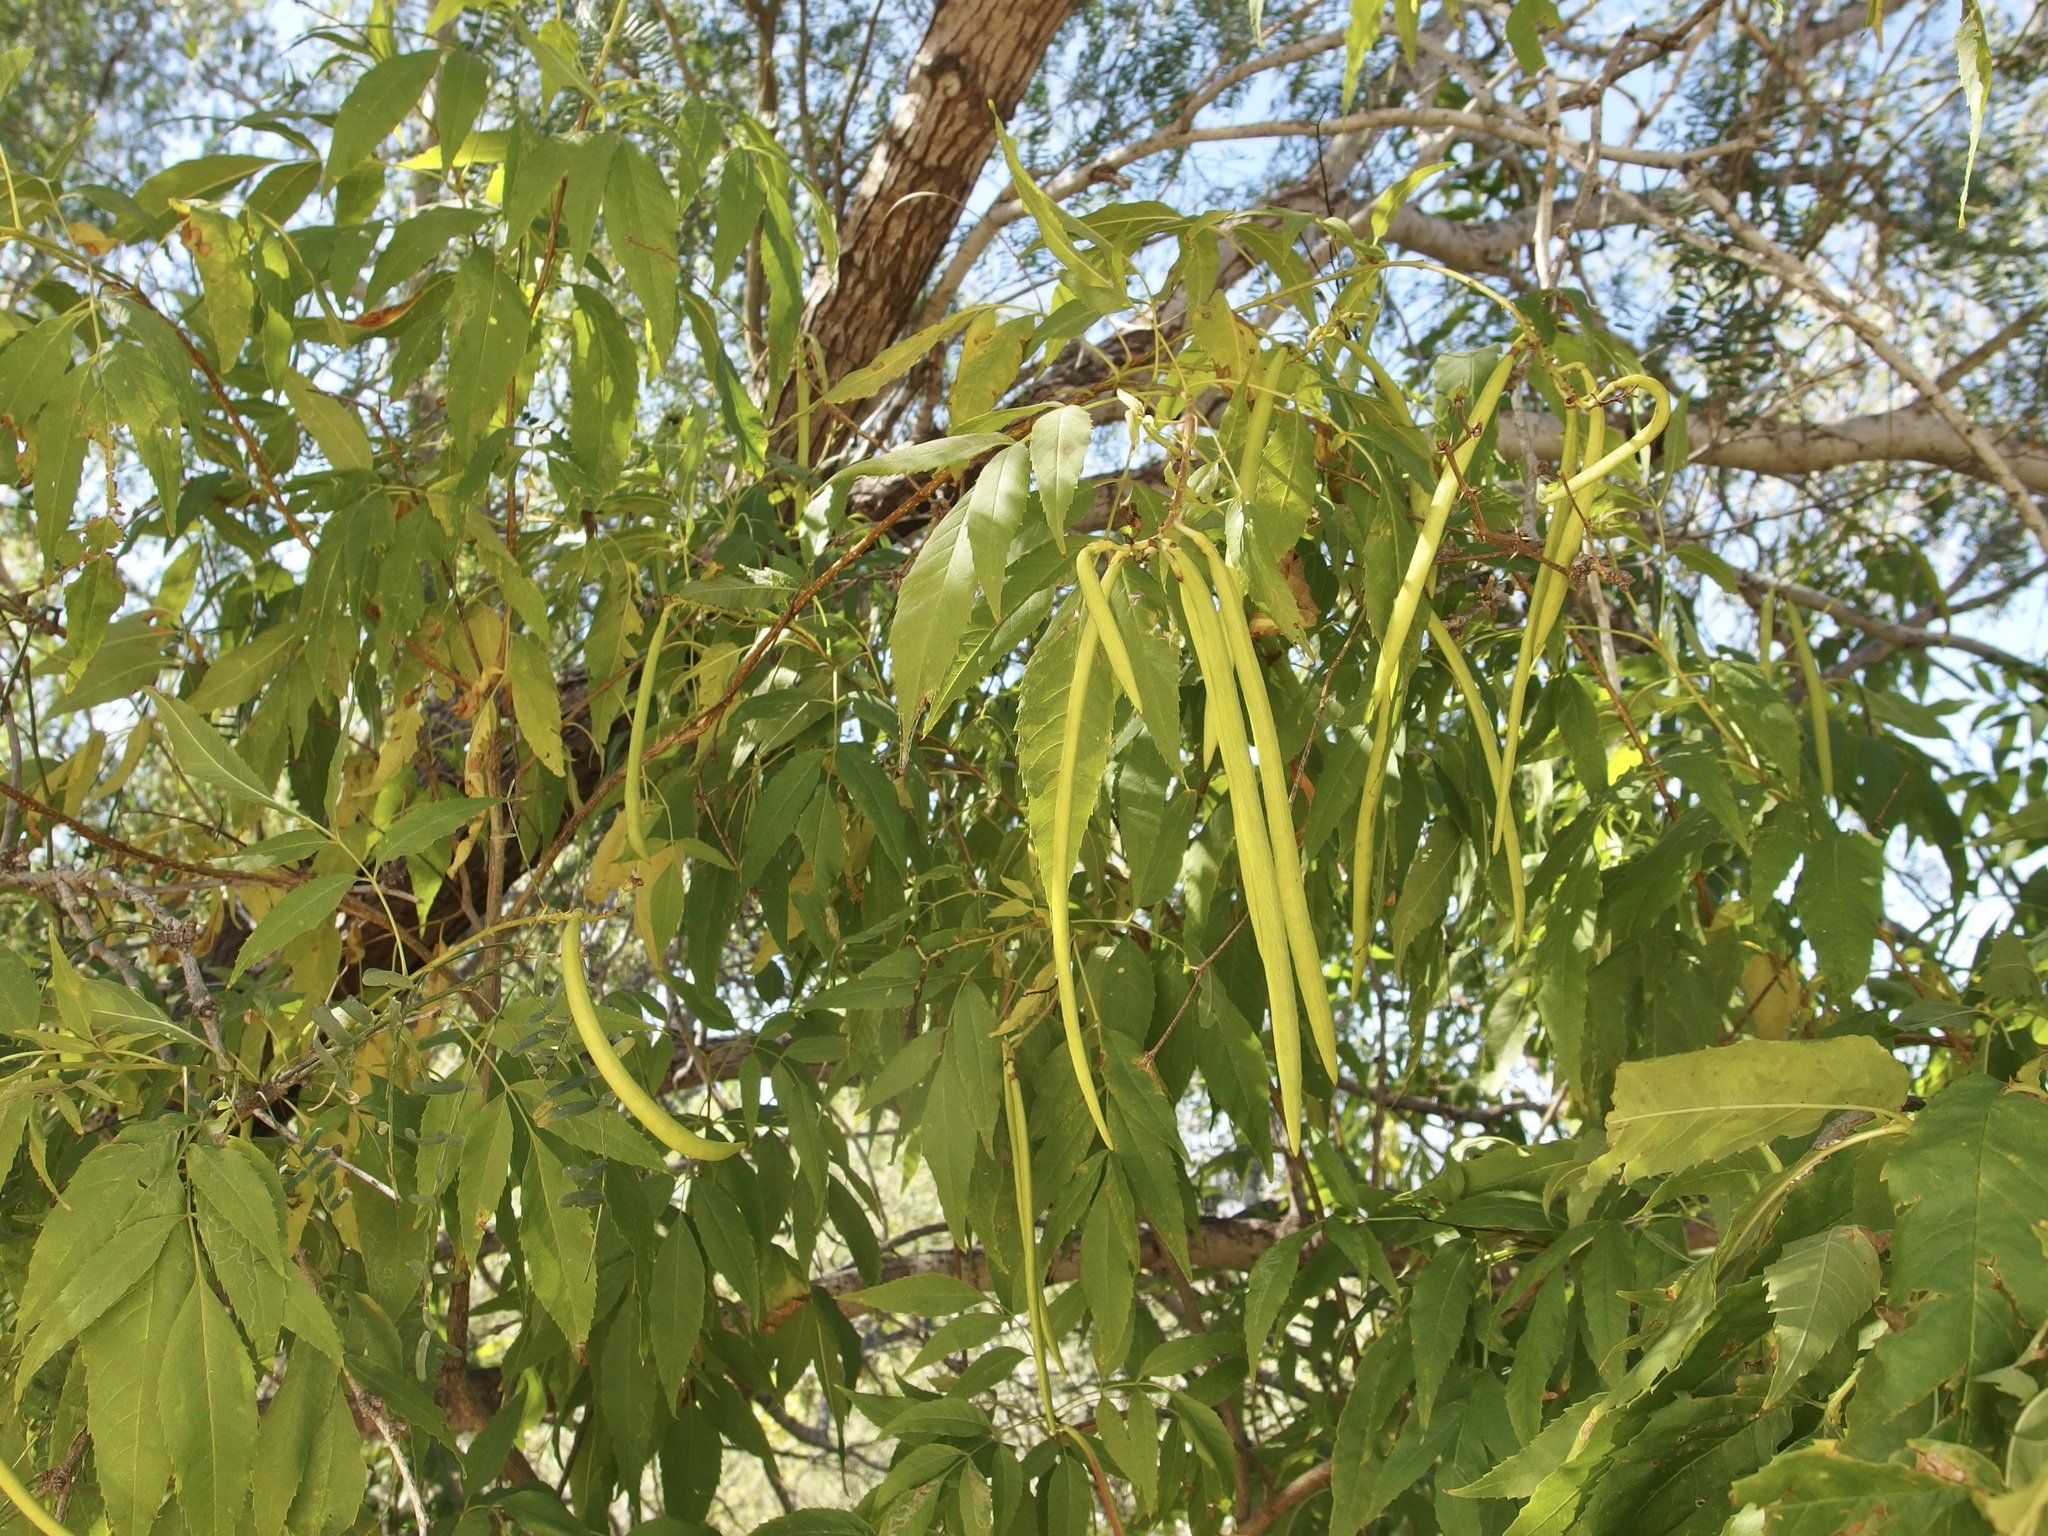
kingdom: Plantae
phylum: Tracheophyta
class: Magnoliopsida
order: Lamiales
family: Bignoniaceae
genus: Tecoma
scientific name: Tecoma stans
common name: Yellow trumpetbush
